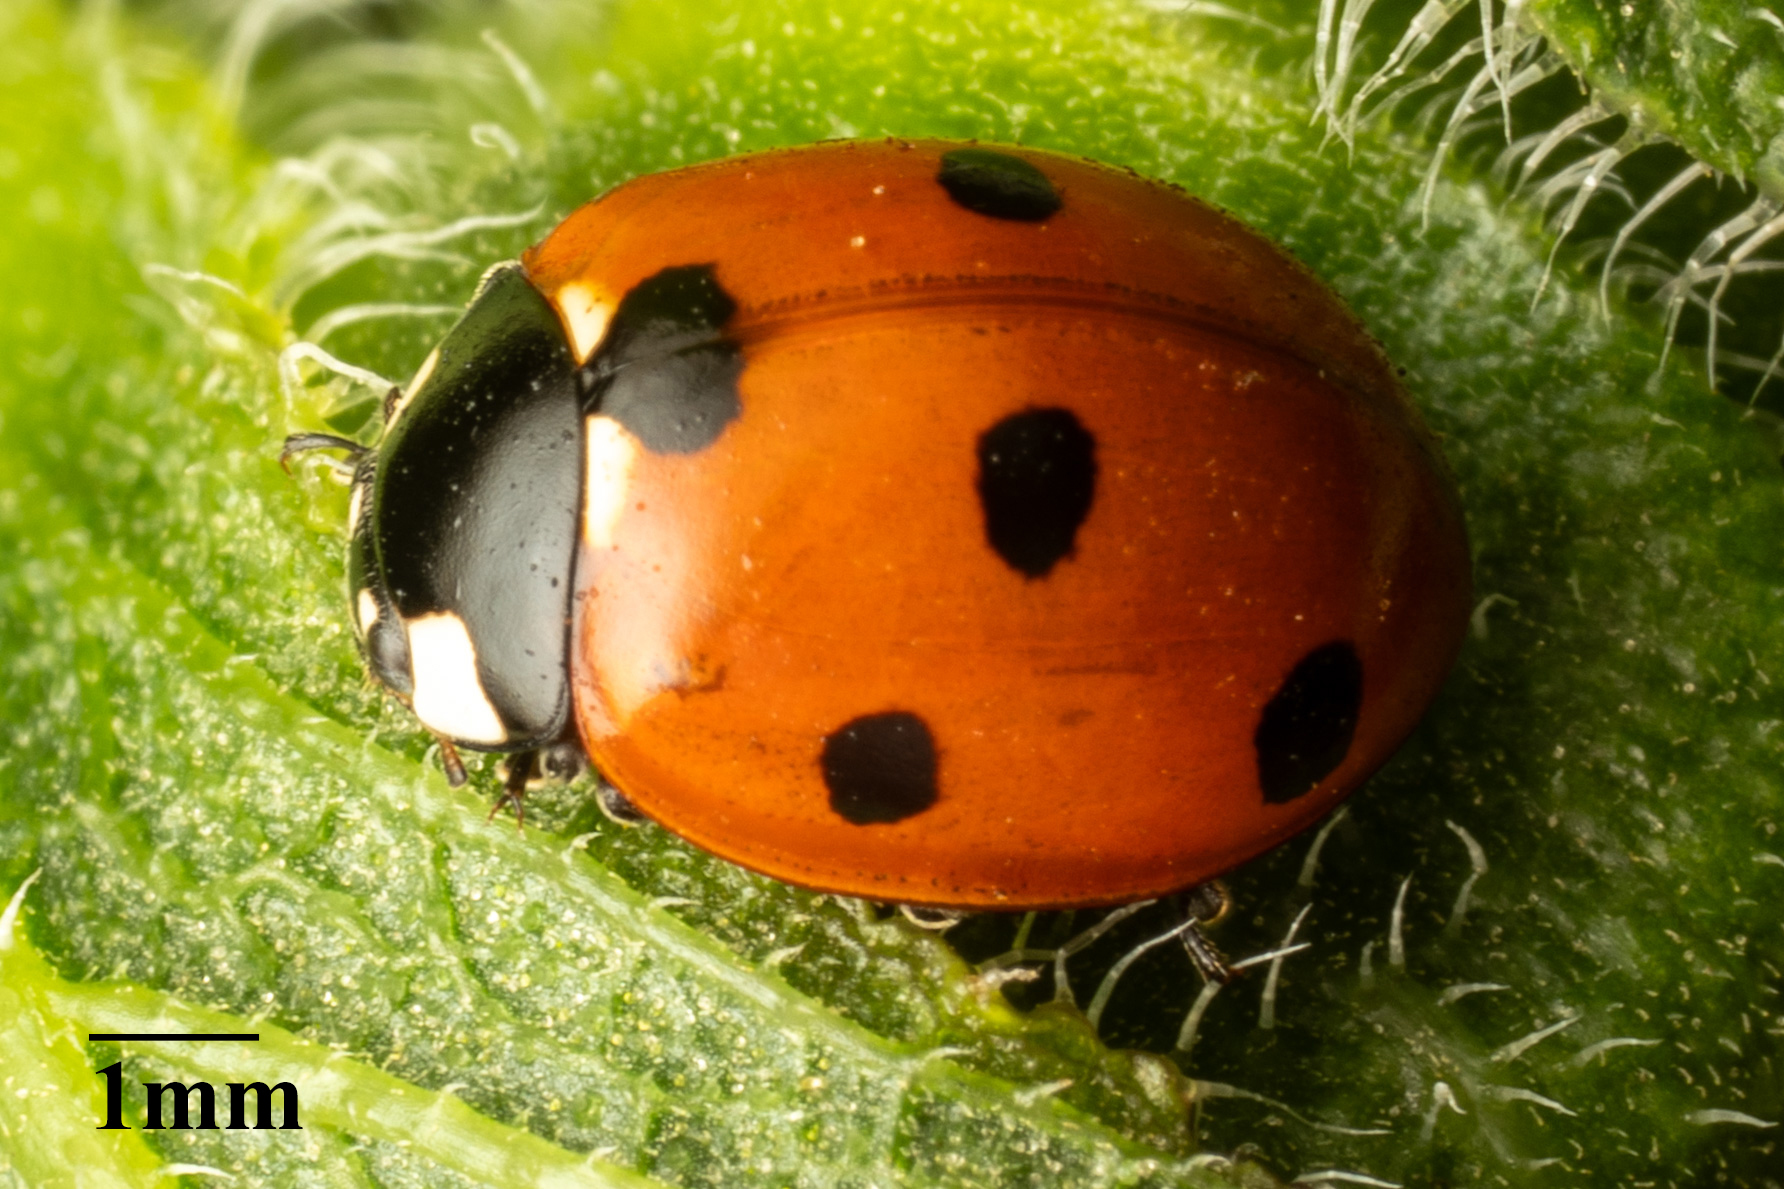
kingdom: Animalia
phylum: Arthropoda
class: Insecta
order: Coleoptera
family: Coccinellidae
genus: Coccinella
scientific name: Coccinella septempunctata
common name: Sevenspotted lady beetle
